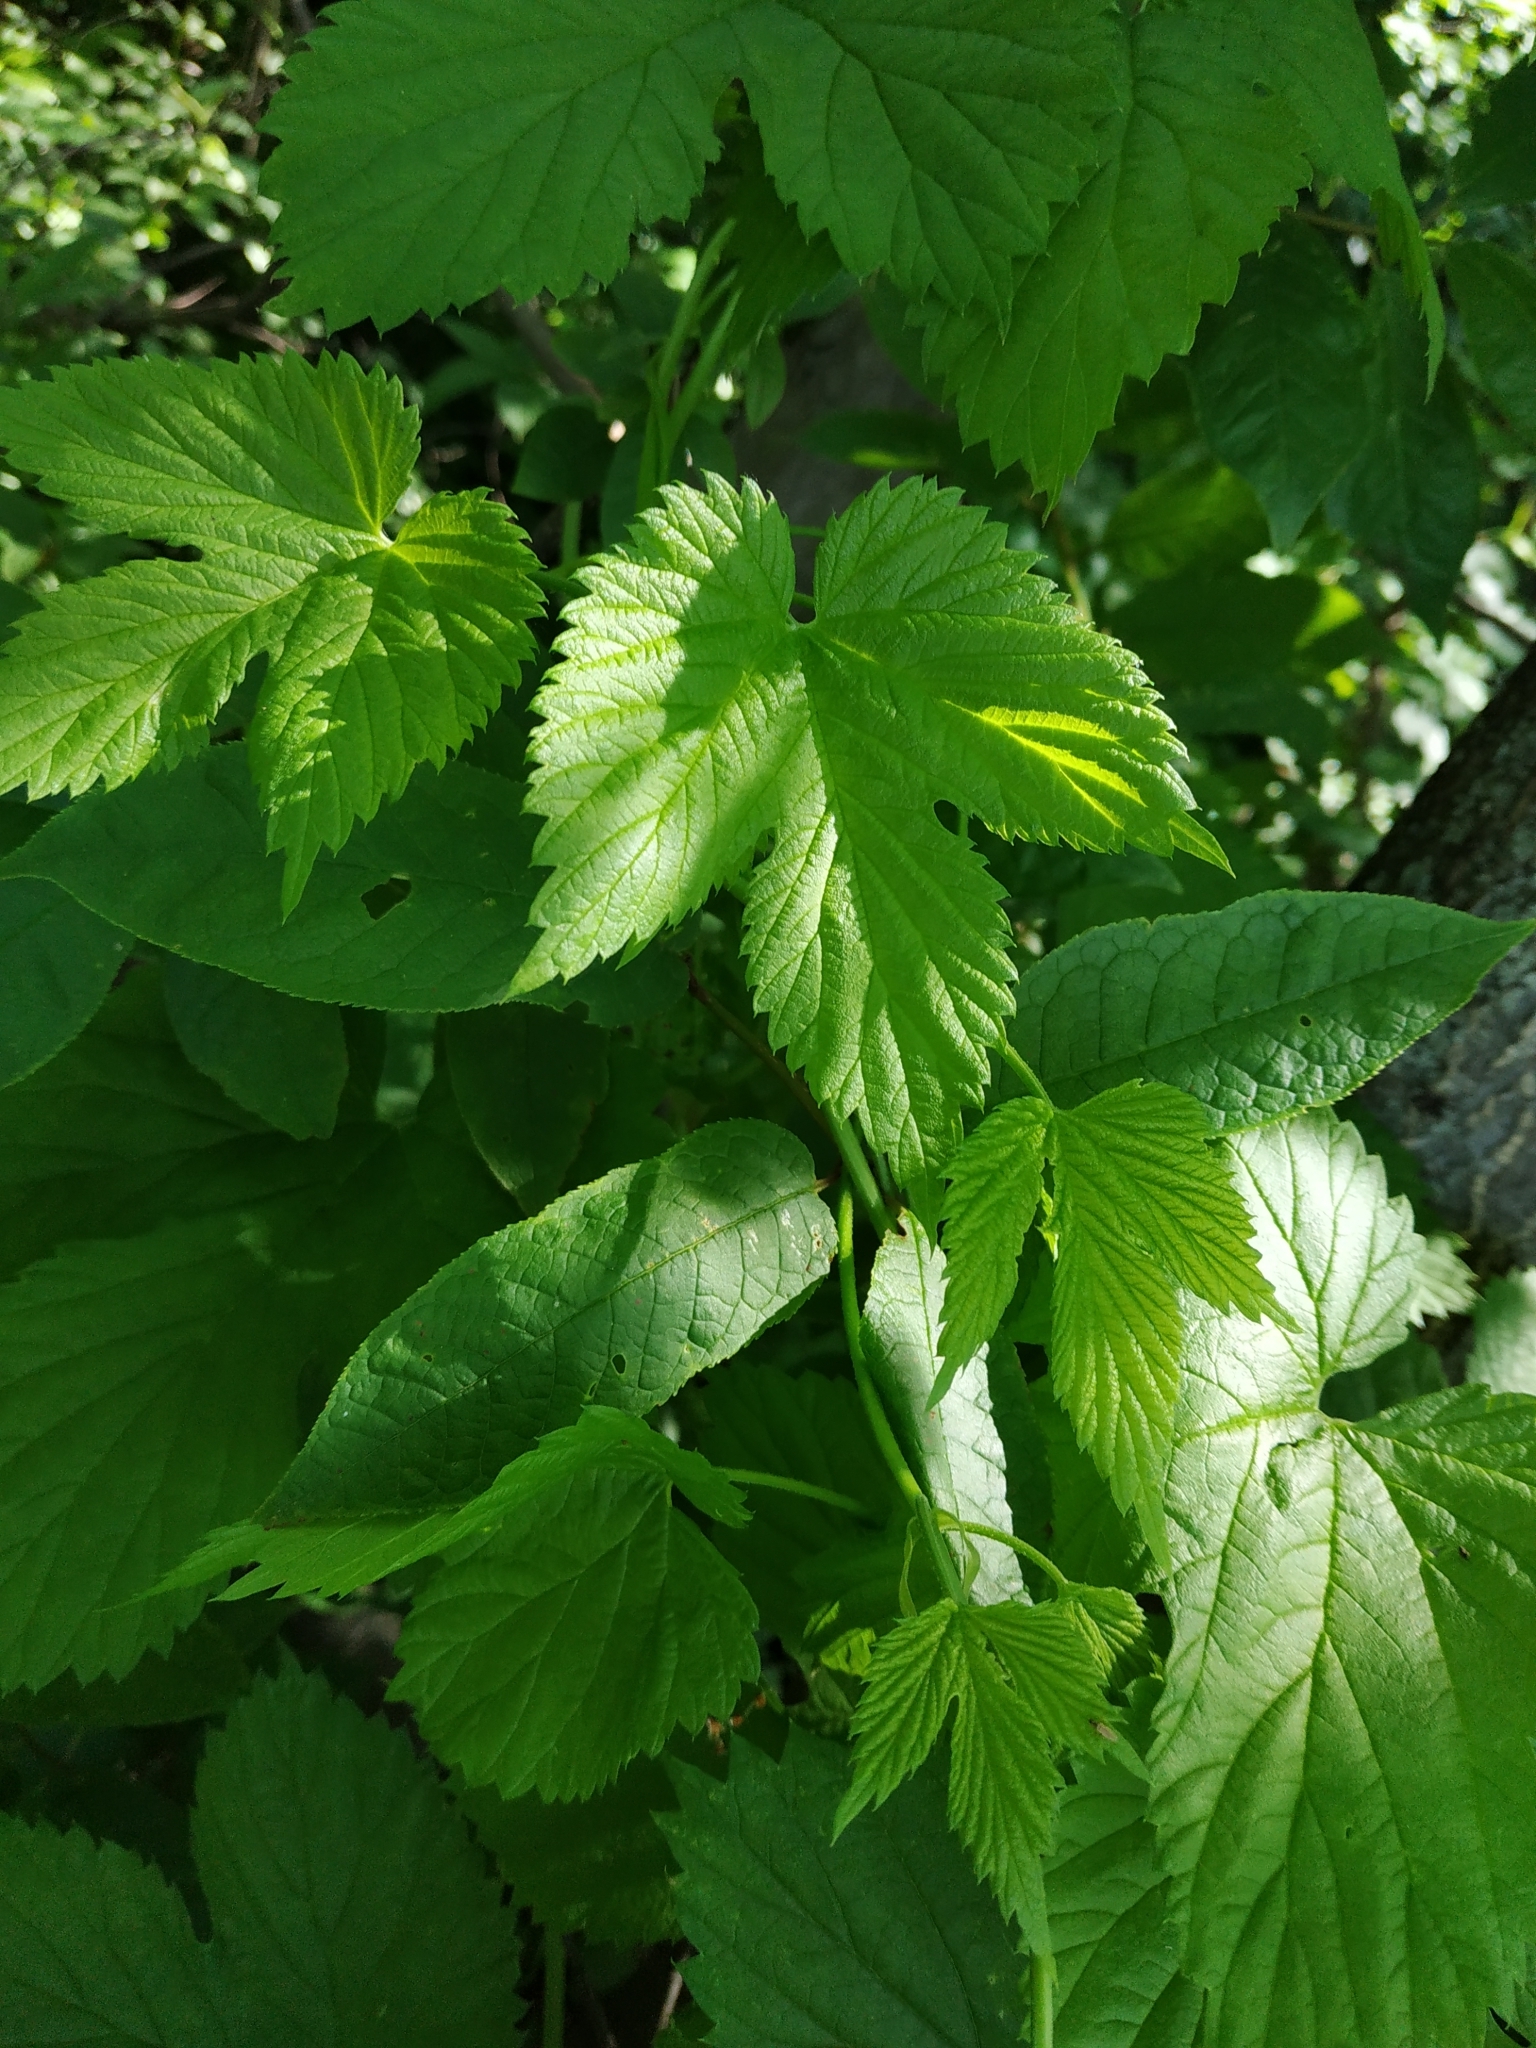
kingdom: Plantae
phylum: Tracheophyta
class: Magnoliopsida
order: Rosales
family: Cannabaceae
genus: Humulus
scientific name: Humulus lupulus
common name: Hop
